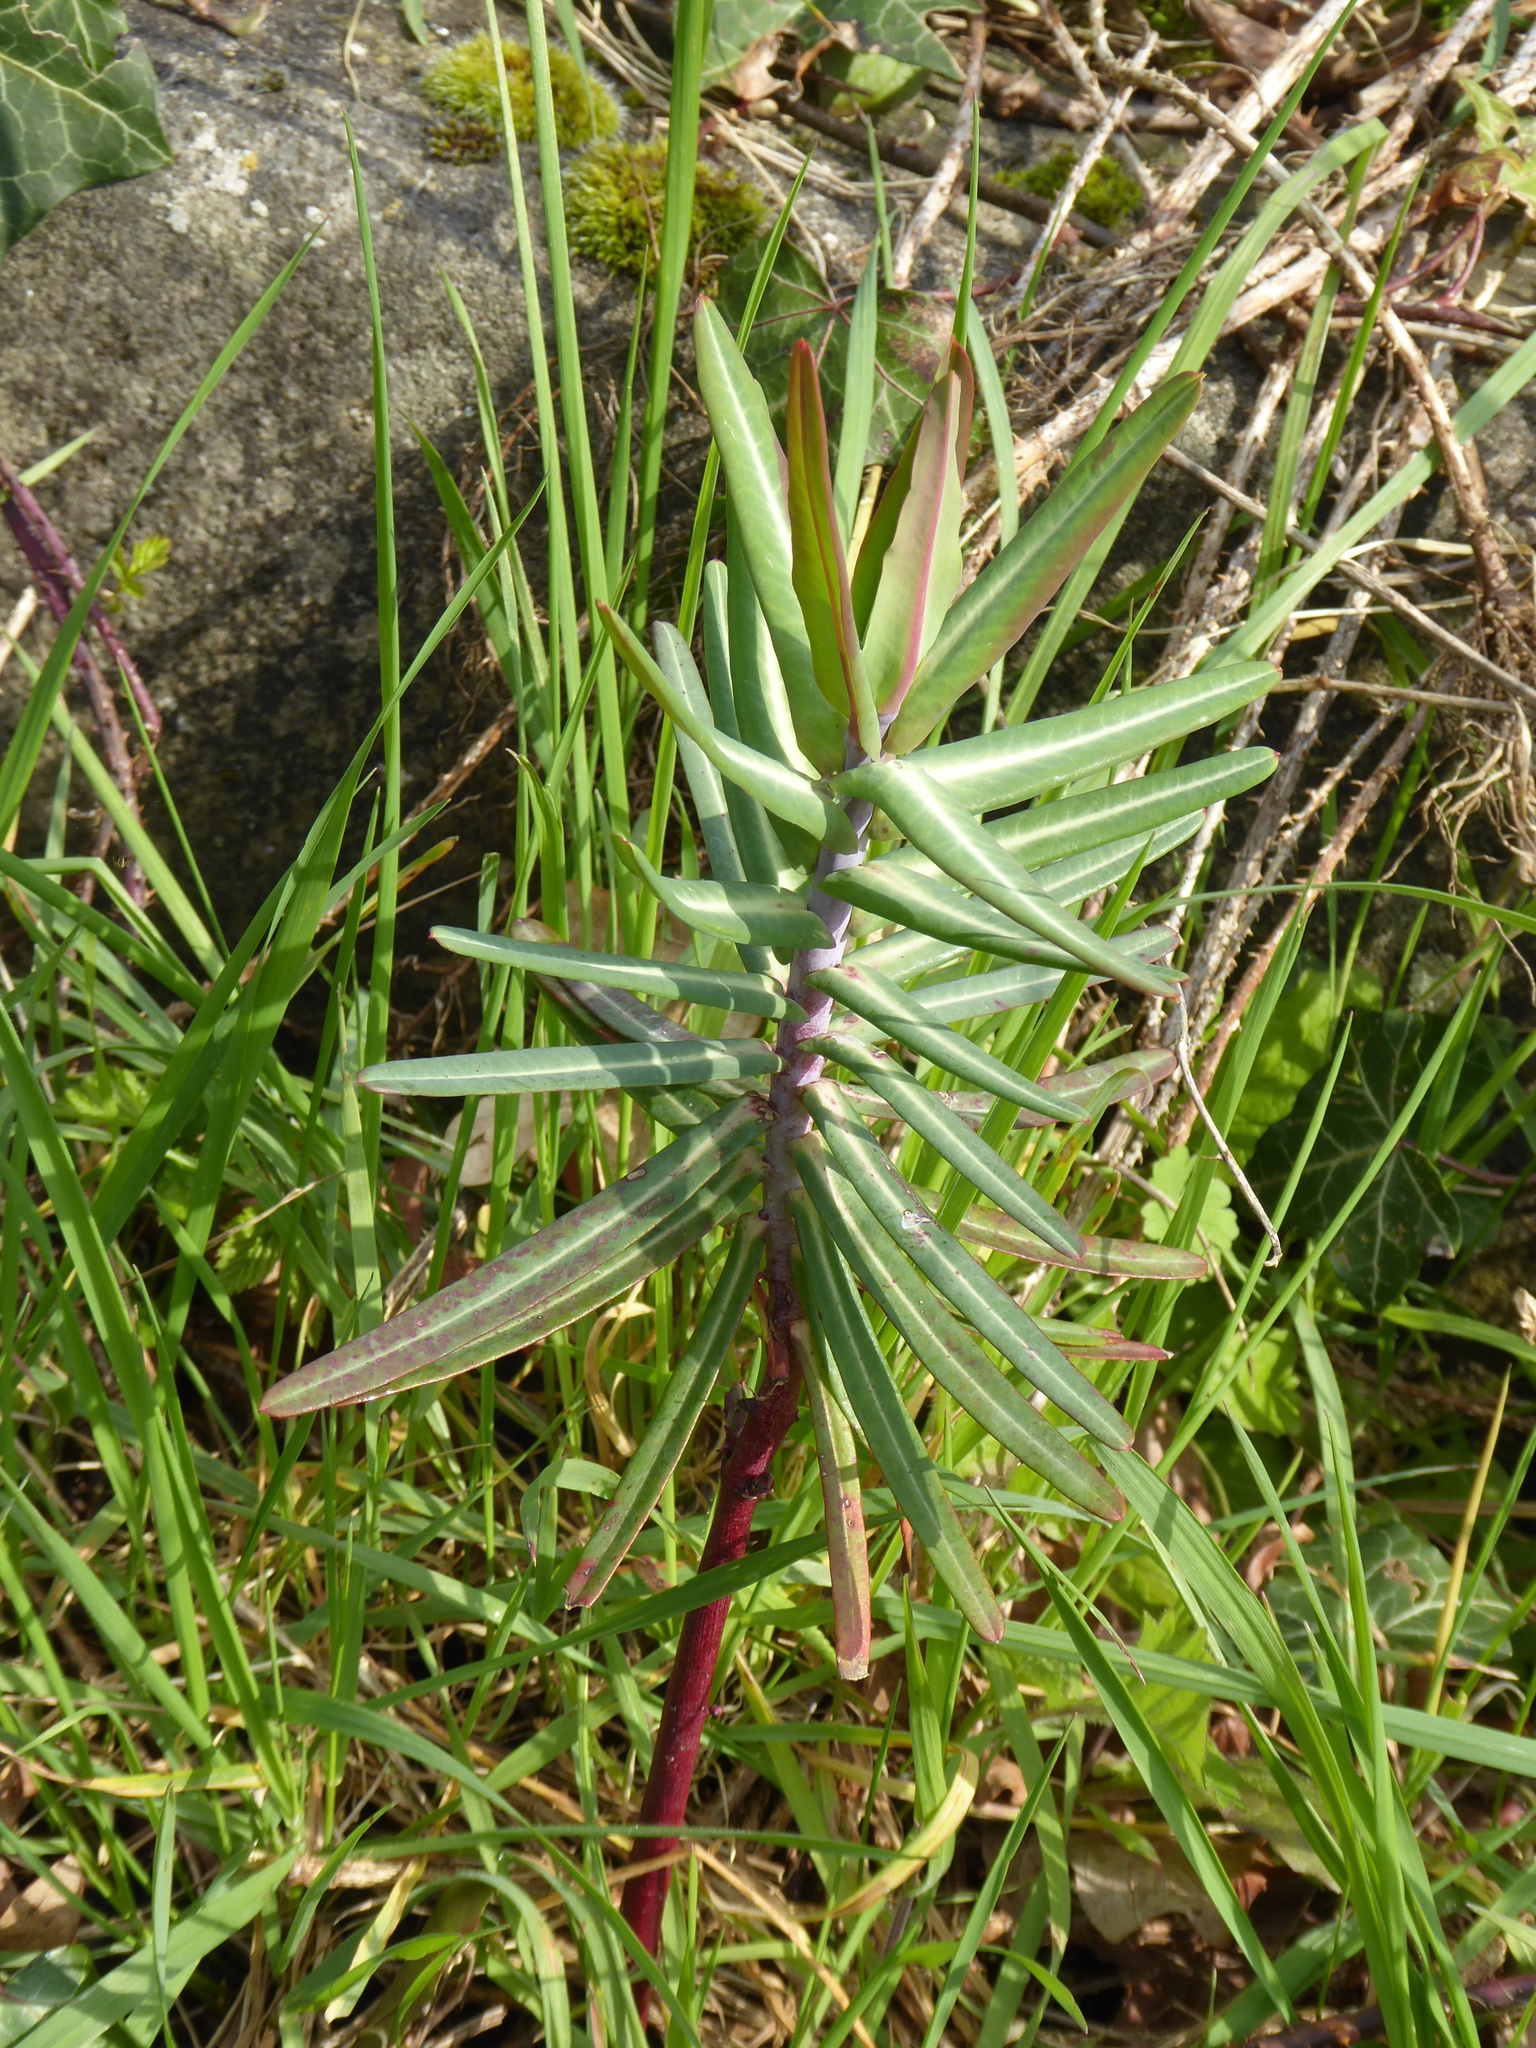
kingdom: Plantae
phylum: Tracheophyta
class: Magnoliopsida
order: Malpighiales
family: Euphorbiaceae
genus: Euphorbia
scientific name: Euphorbia lathyris
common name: Caper spurge
